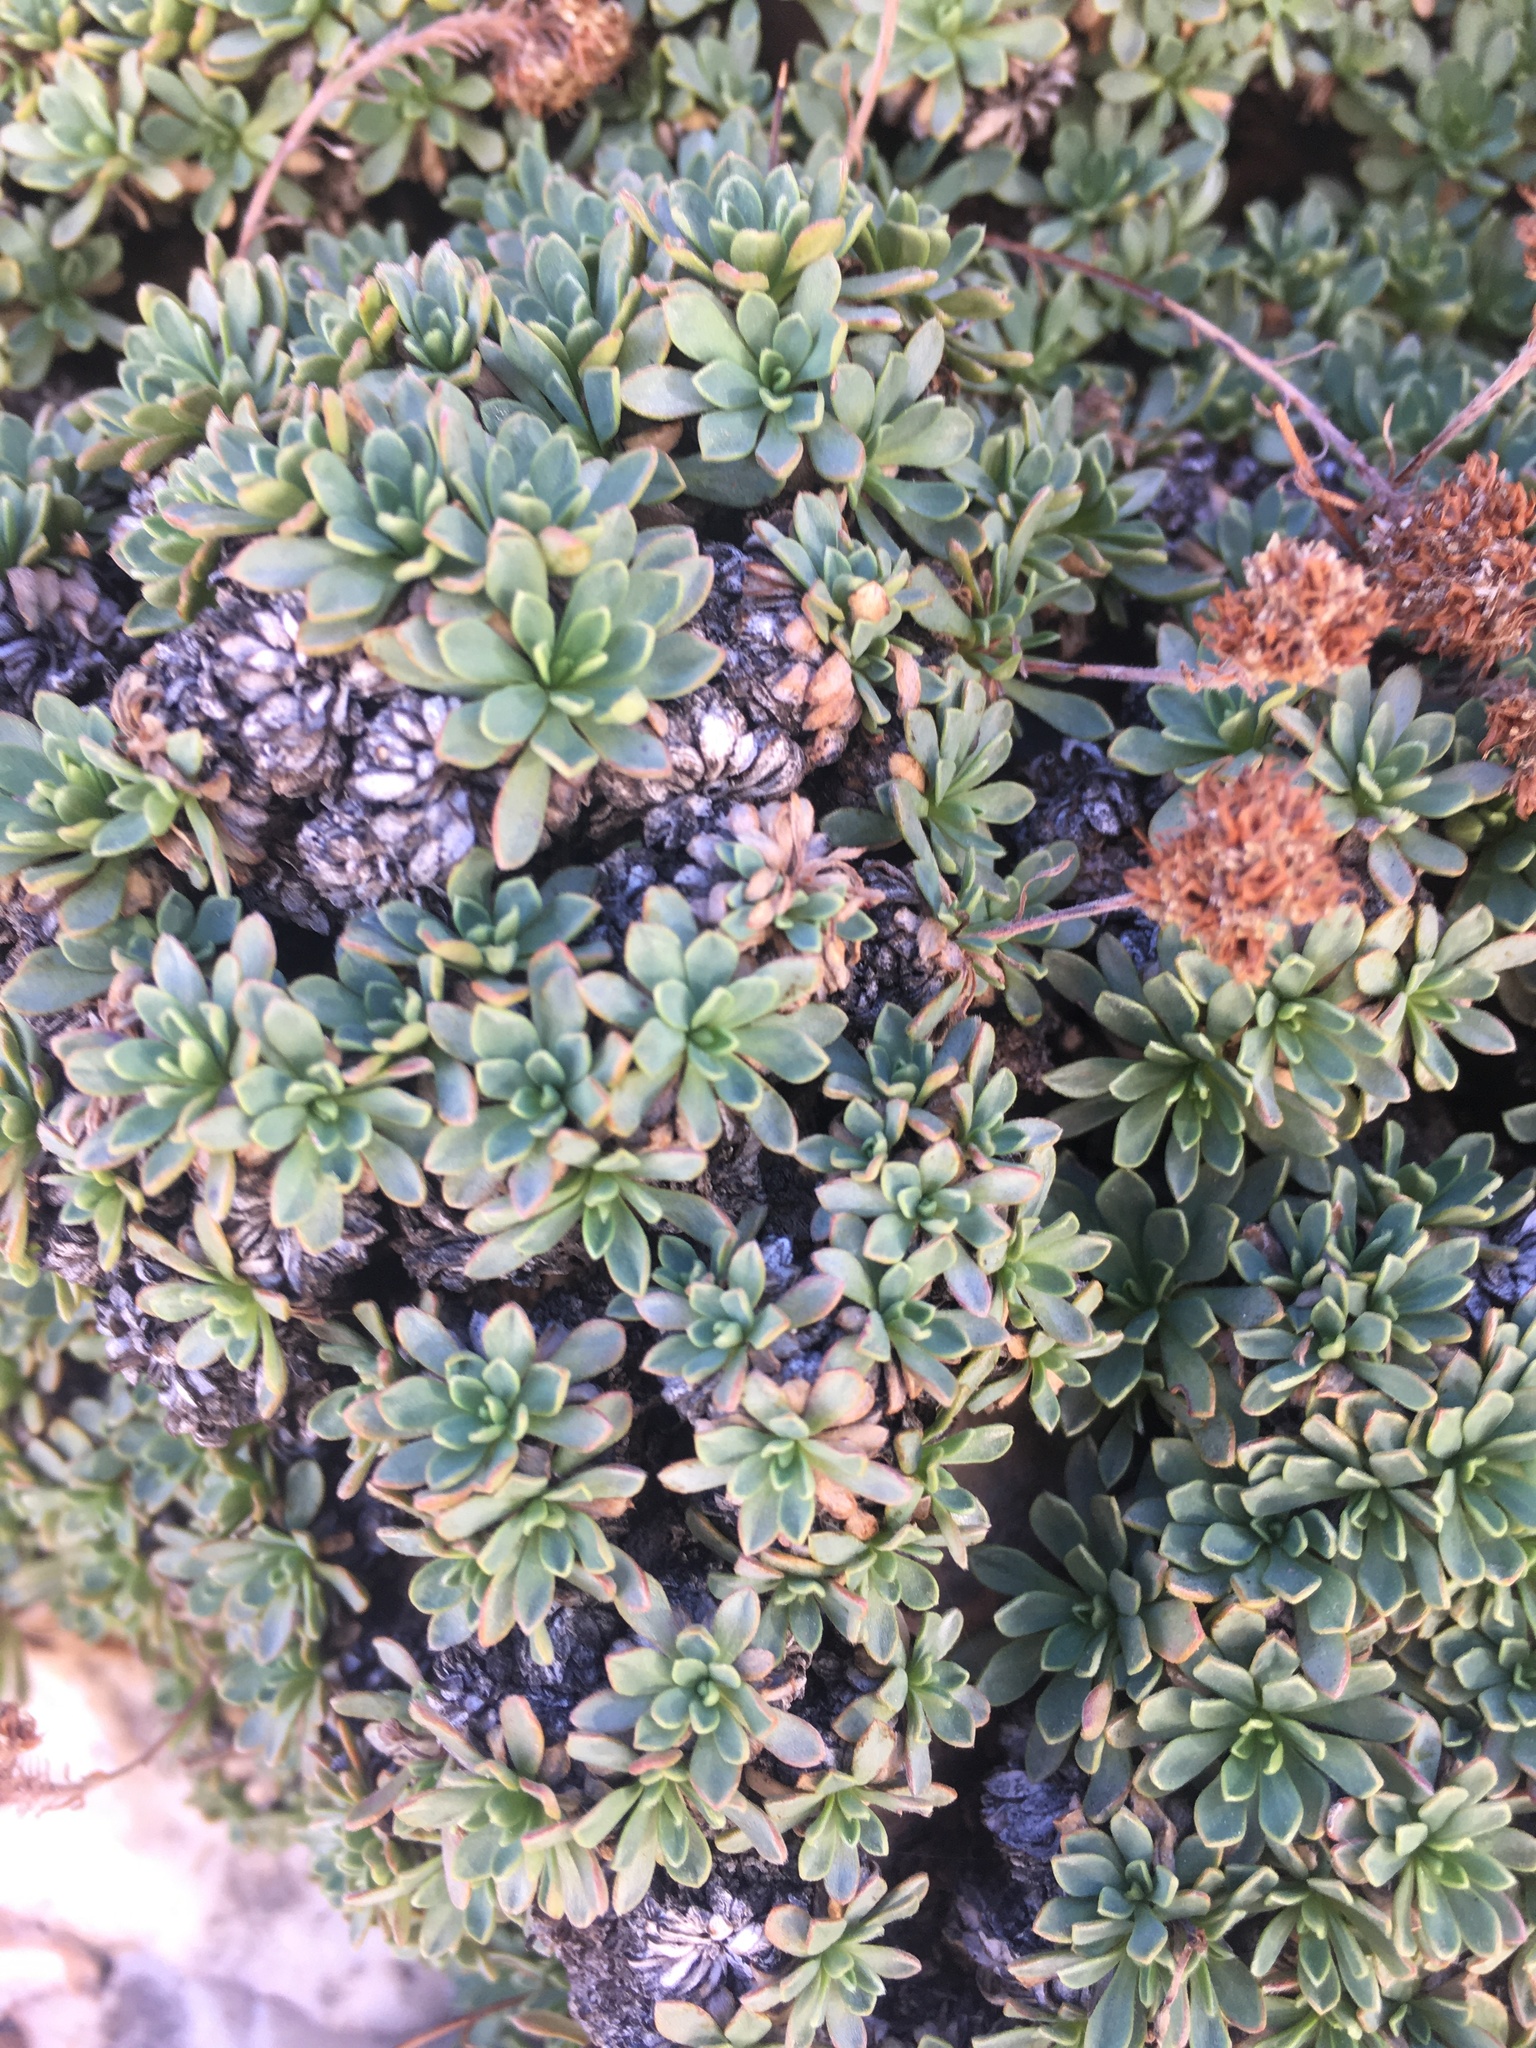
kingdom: Plantae
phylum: Tracheophyta
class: Magnoliopsida
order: Rosales
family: Rosaceae
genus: Petrophytum
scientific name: Petrophytum caespitosum
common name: Mat rockspirea
